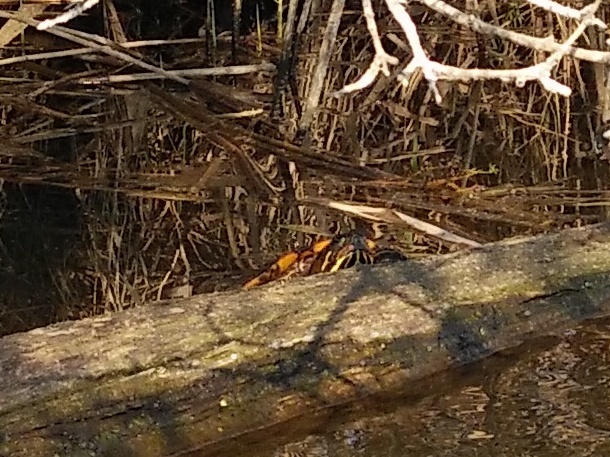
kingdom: Animalia
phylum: Chordata
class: Testudines
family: Emydidae
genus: Trachemys
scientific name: Trachemys scripta
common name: Slider
